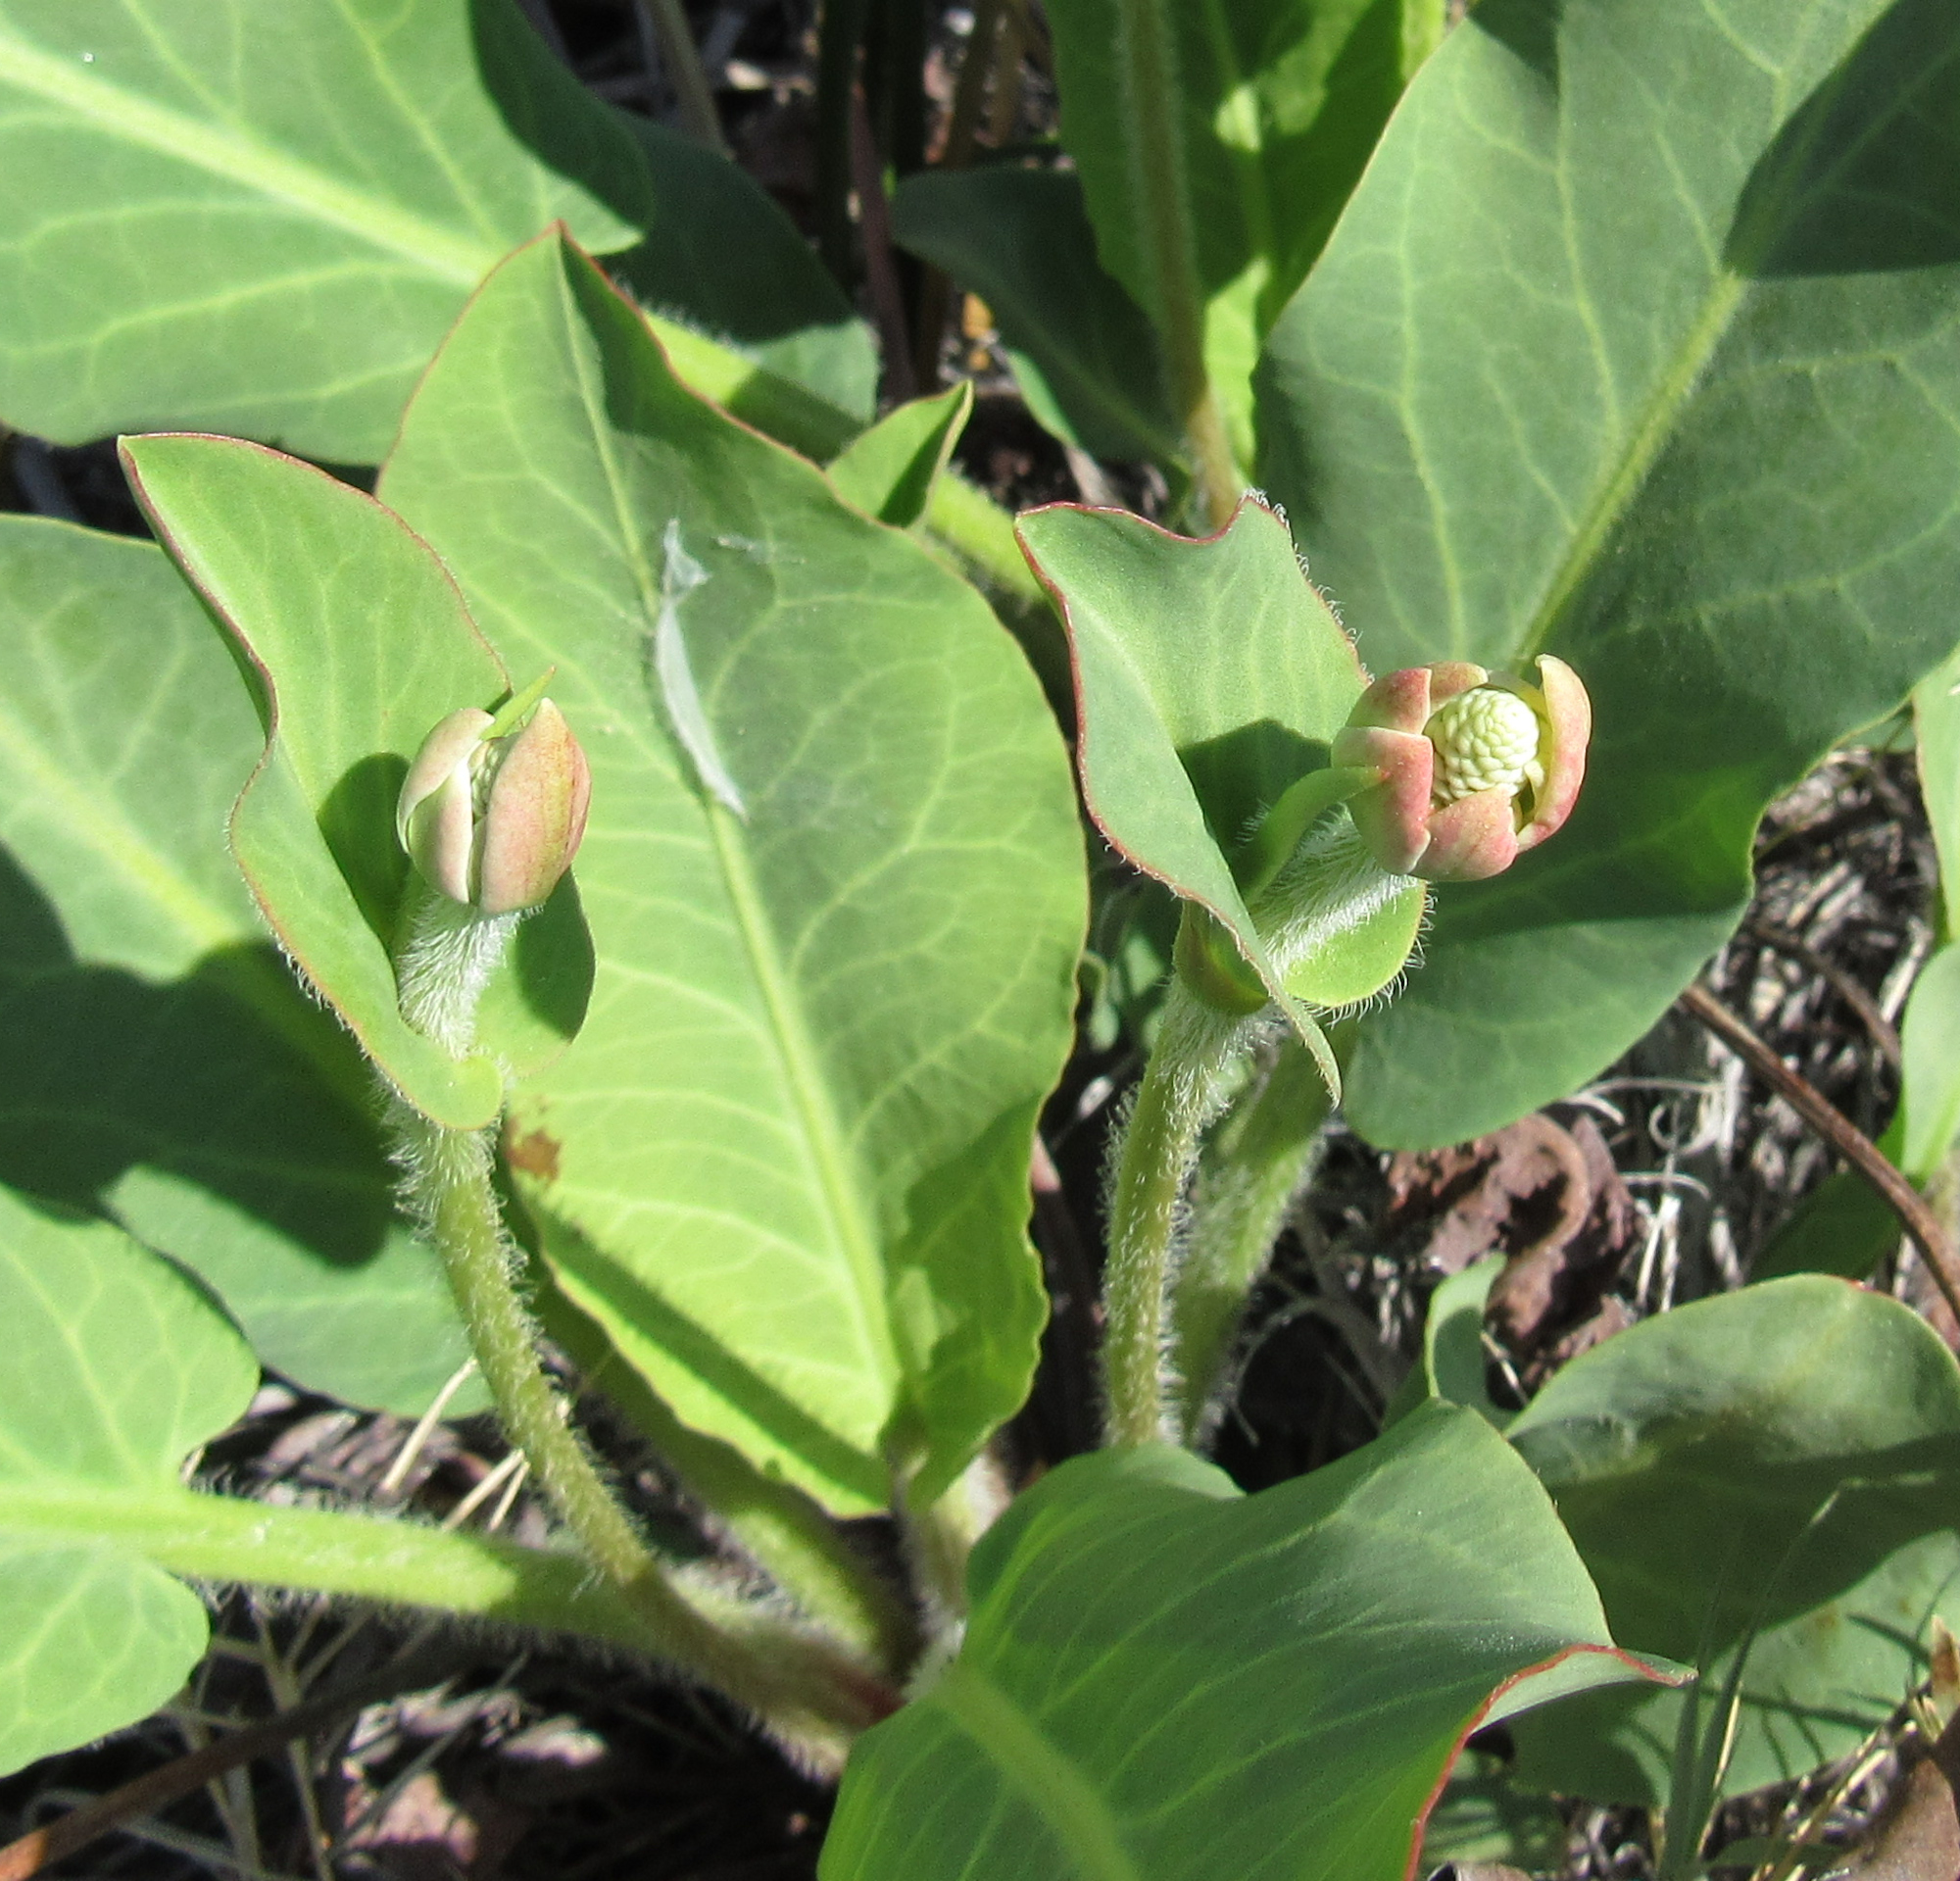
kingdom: Plantae
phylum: Tracheophyta
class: Magnoliopsida
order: Piperales
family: Saururaceae
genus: Anemopsis
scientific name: Anemopsis californica
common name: Apache-beads
